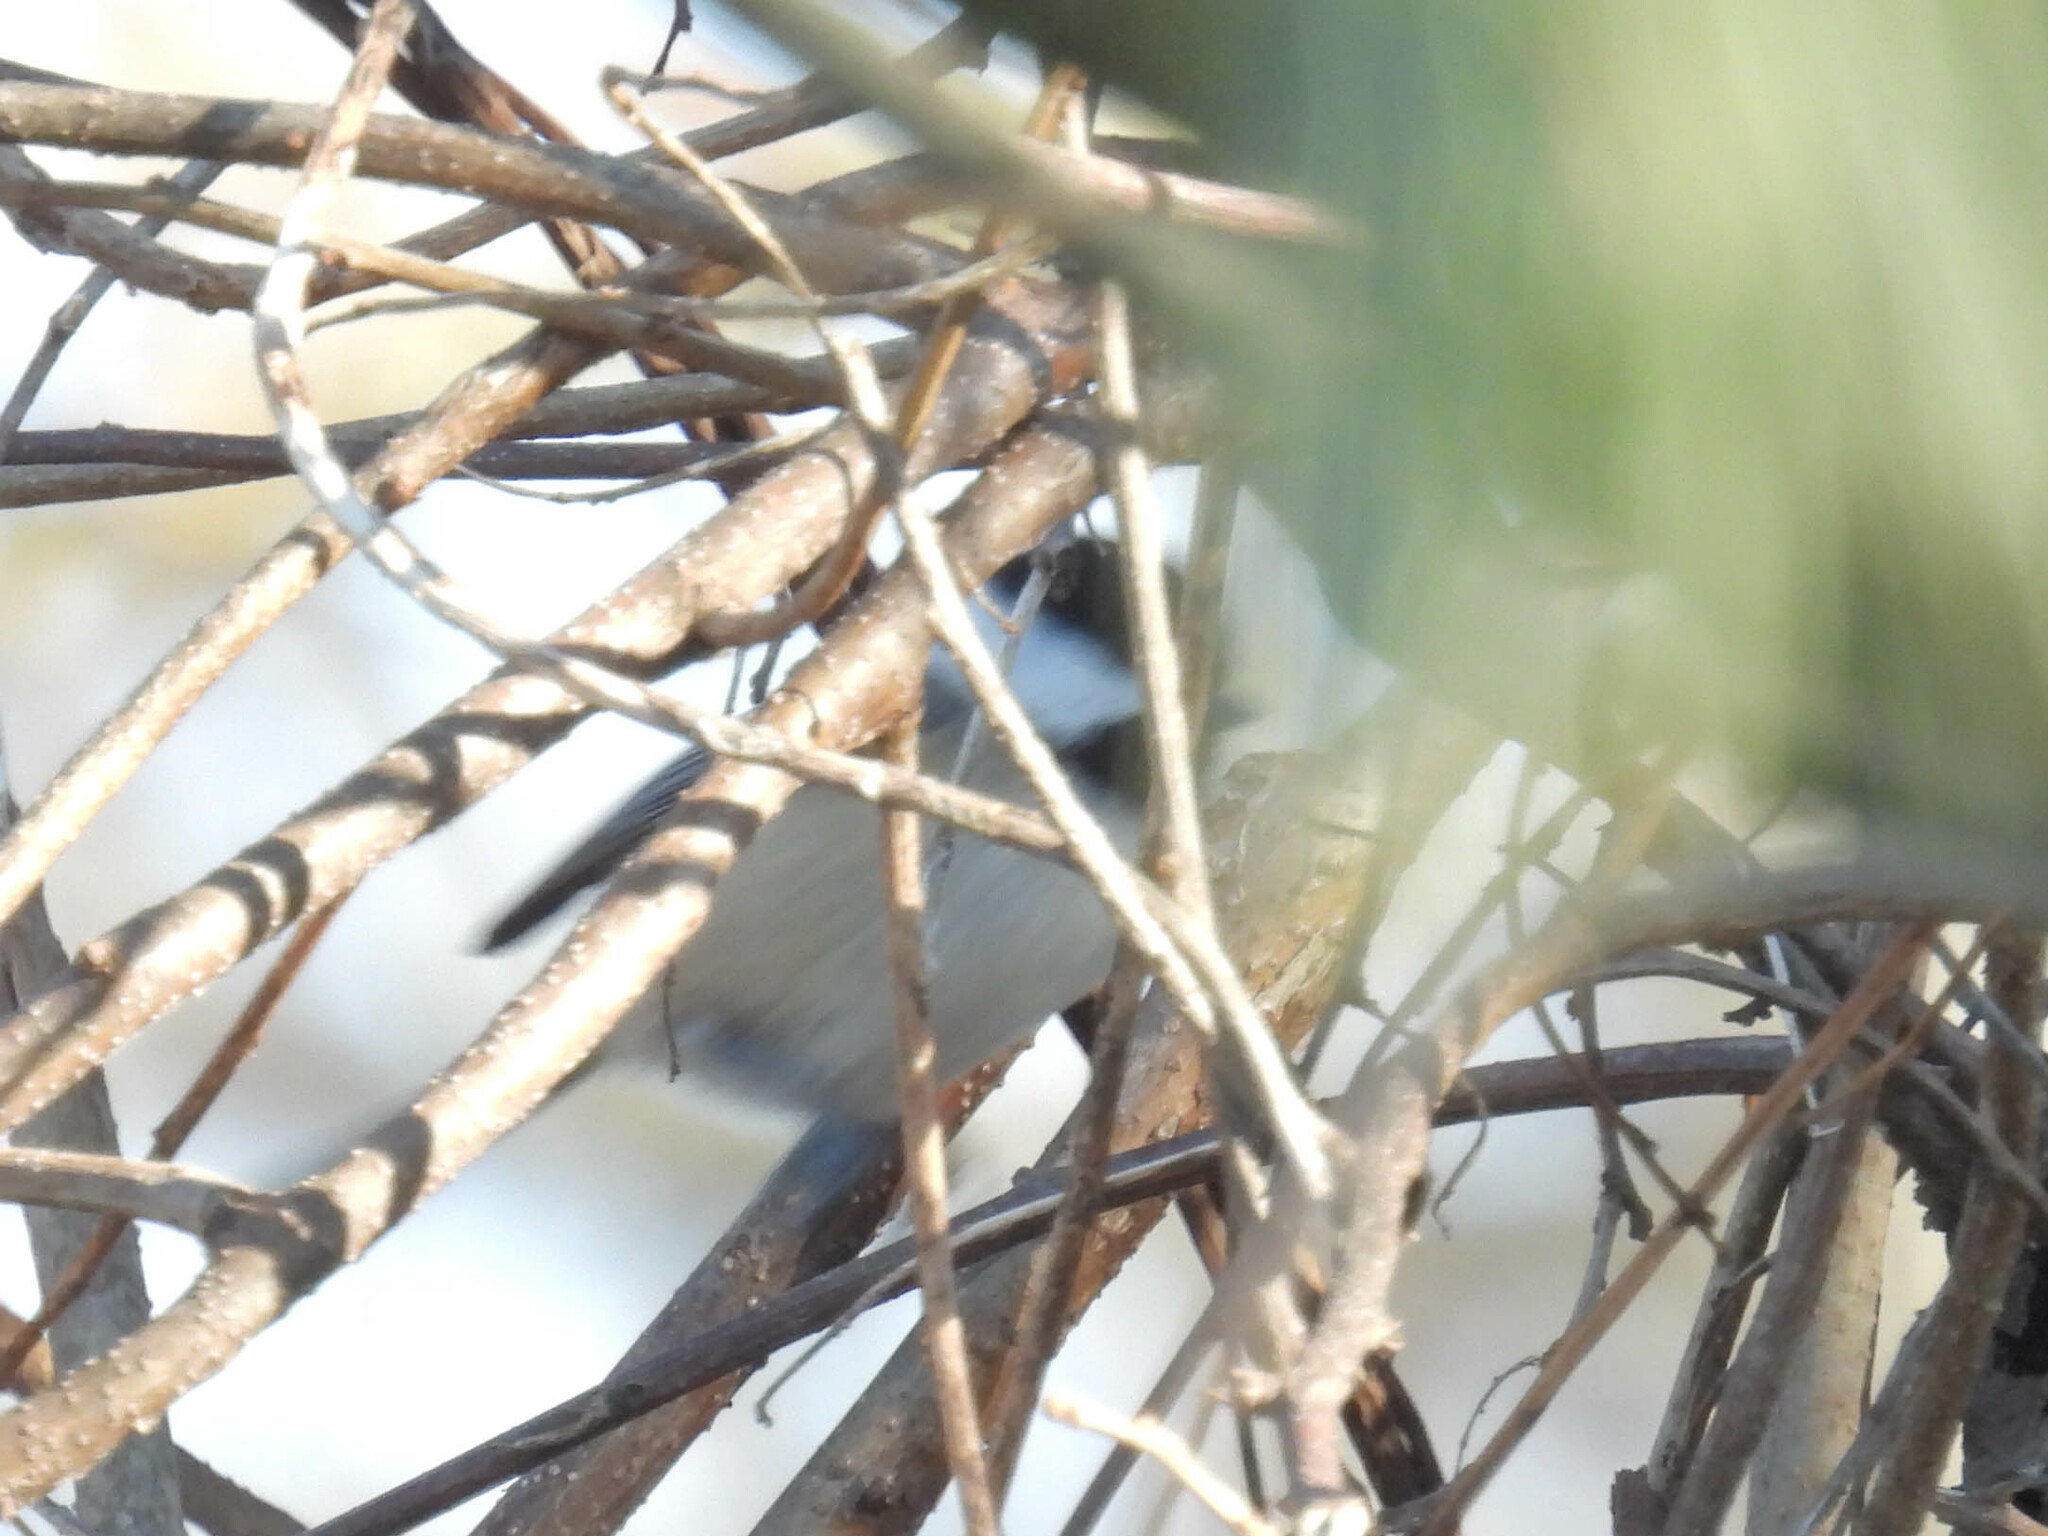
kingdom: Animalia
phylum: Chordata
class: Aves
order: Passeriformes
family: Paridae
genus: Poecile
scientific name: Poecile atricapillus
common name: Black-capped chickadee
